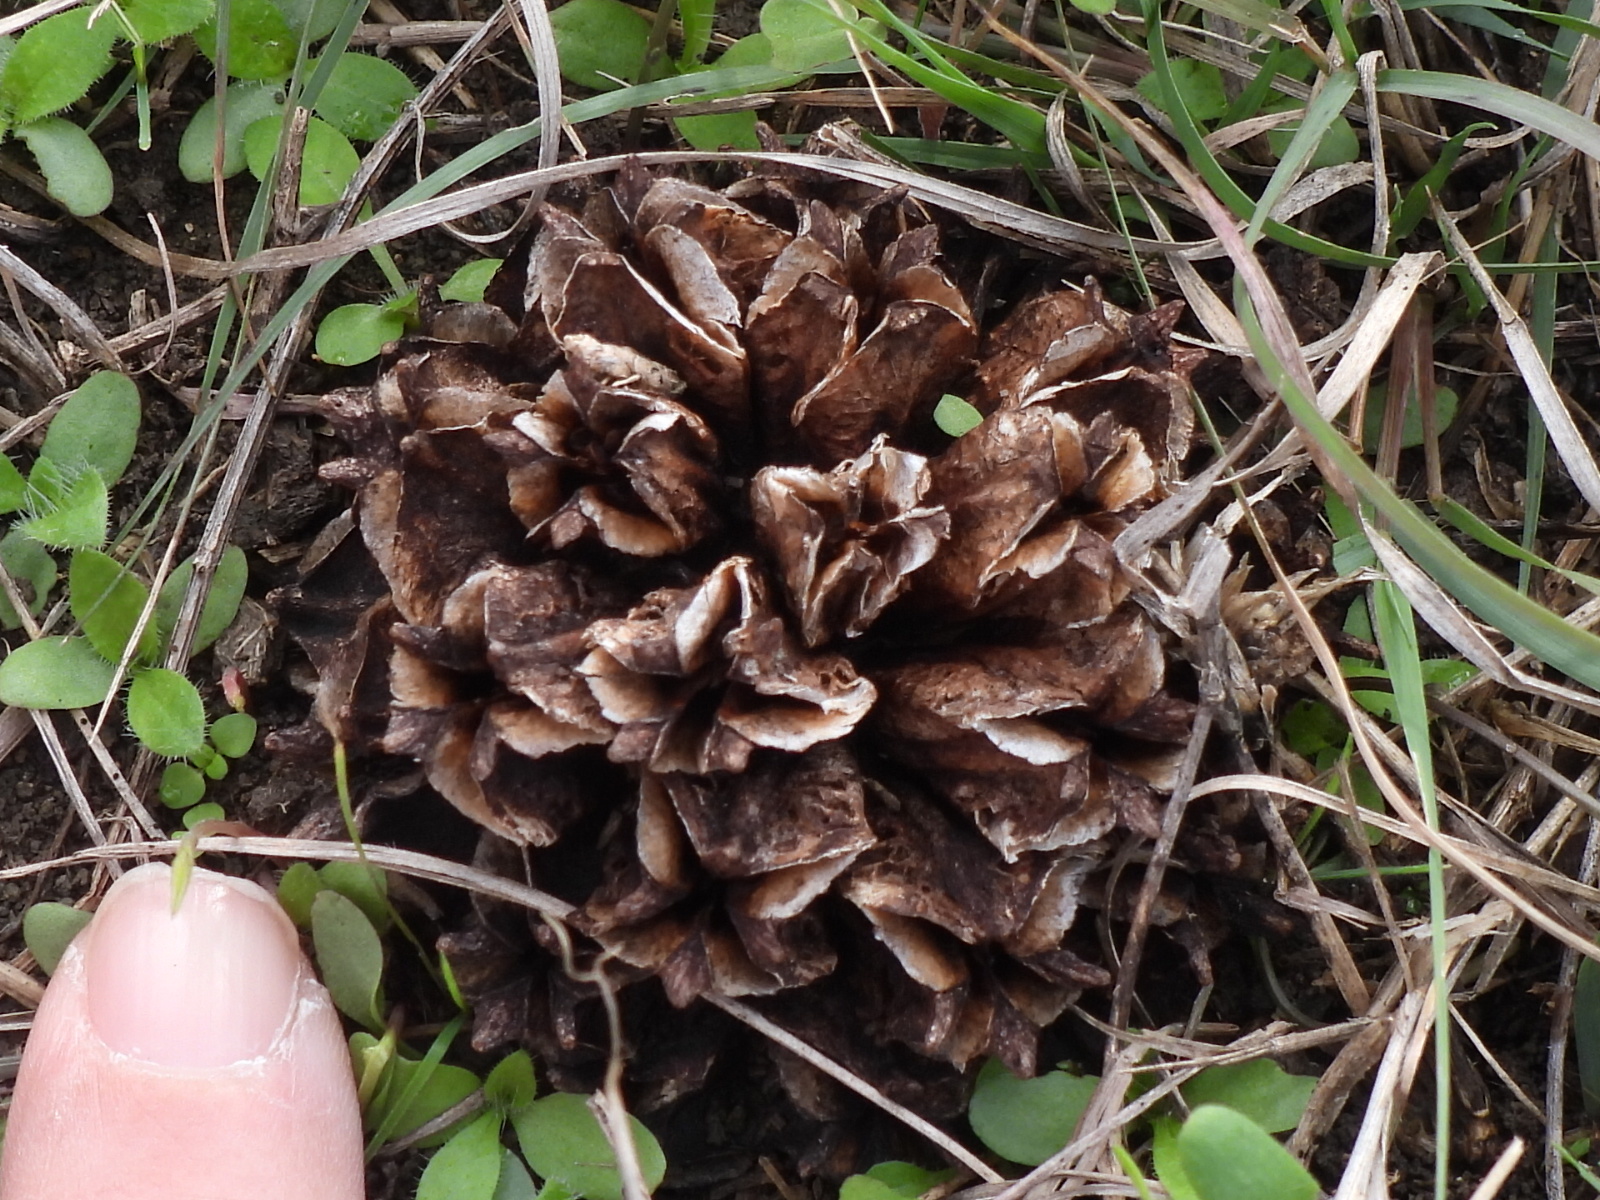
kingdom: Plantae
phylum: Tracheophyta
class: Magnoliopsida
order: Myrtales
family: Onagraceae
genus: Oenothera
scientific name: Oenothera triloba
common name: Sessile evening-primrose
